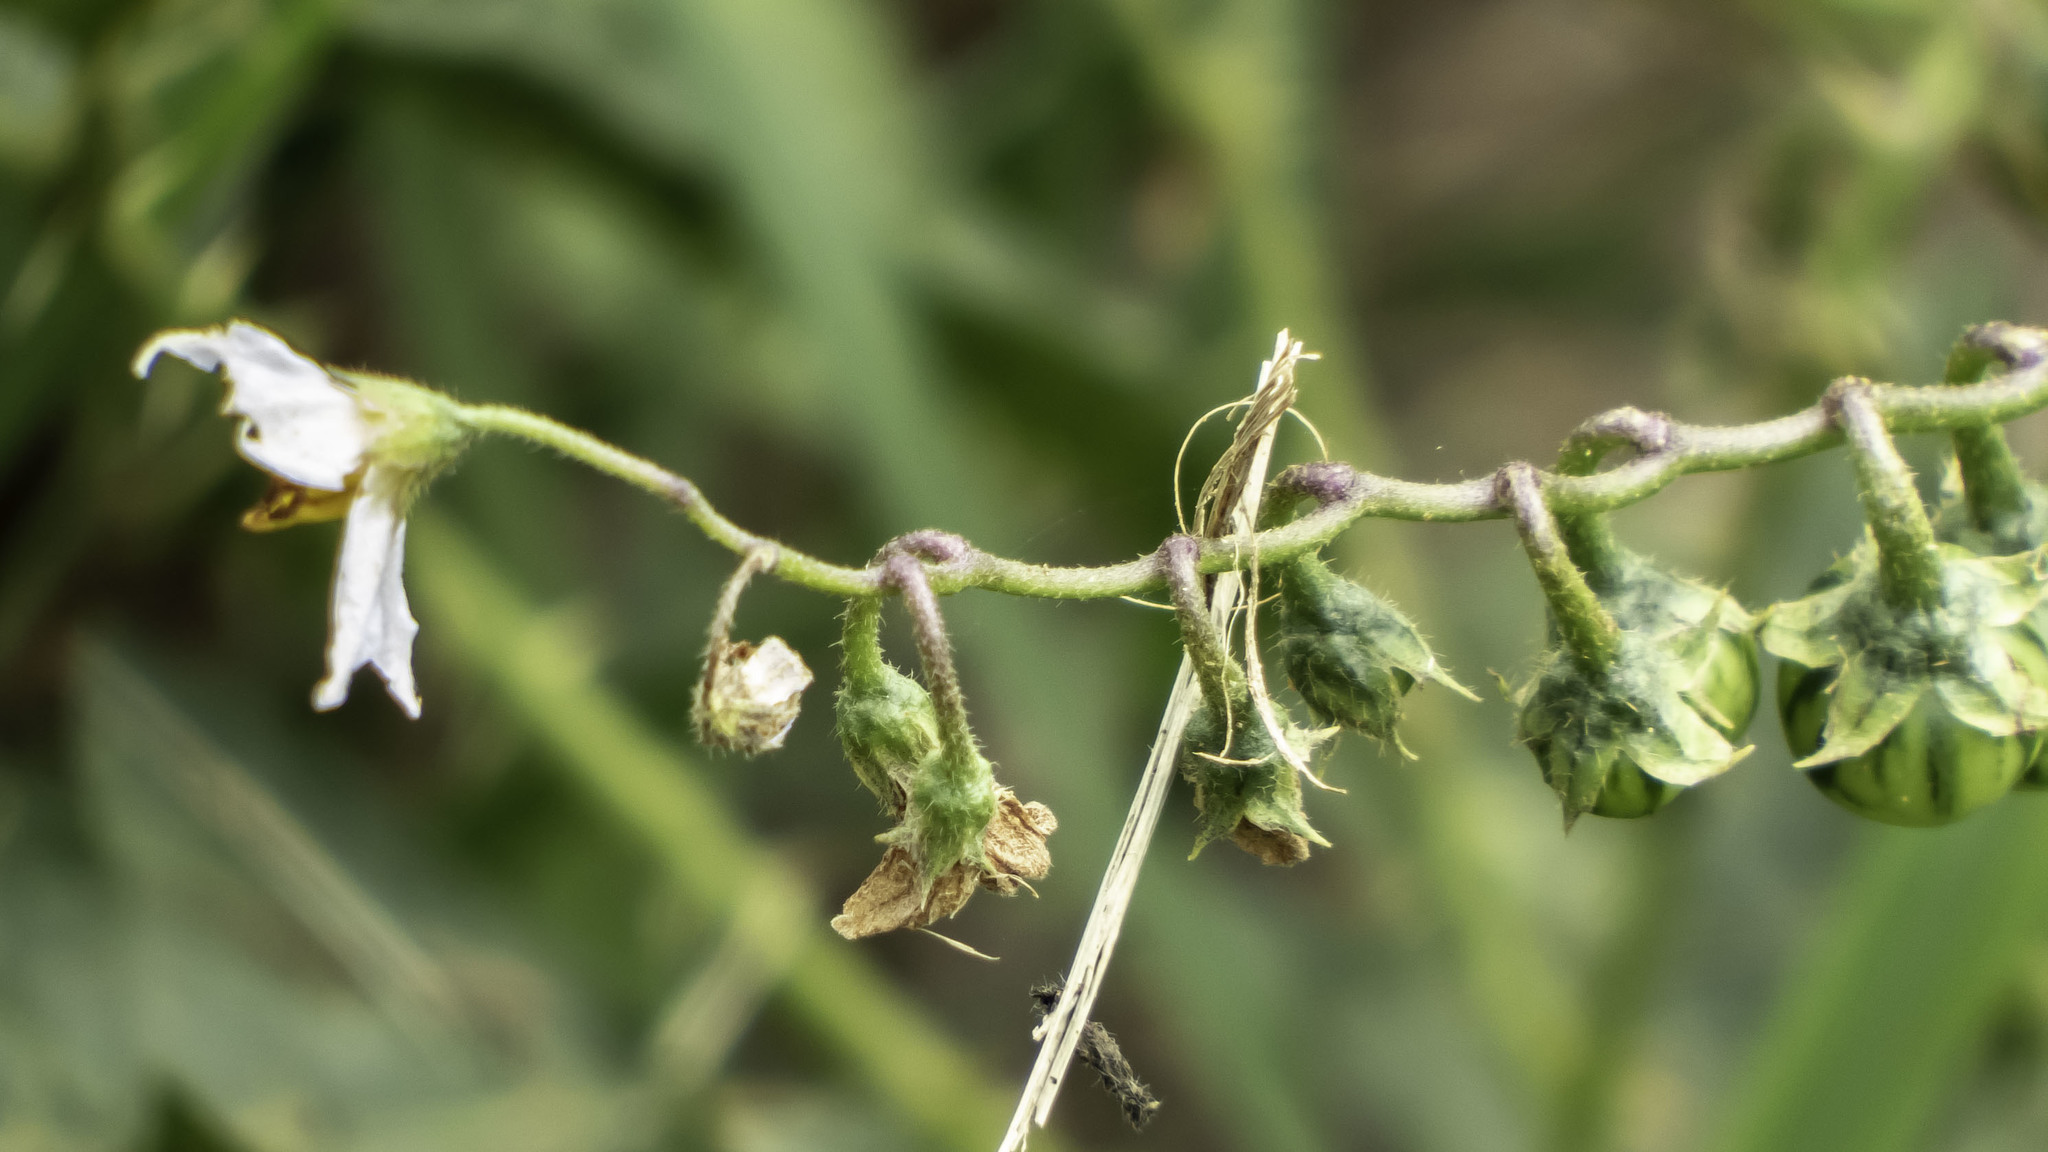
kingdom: Plantae
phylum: Tracheophyta
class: Magnoliopsida
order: Solanales
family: Solanaceae
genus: Solanum
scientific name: Solanum carolinense
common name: Horse-nettle
